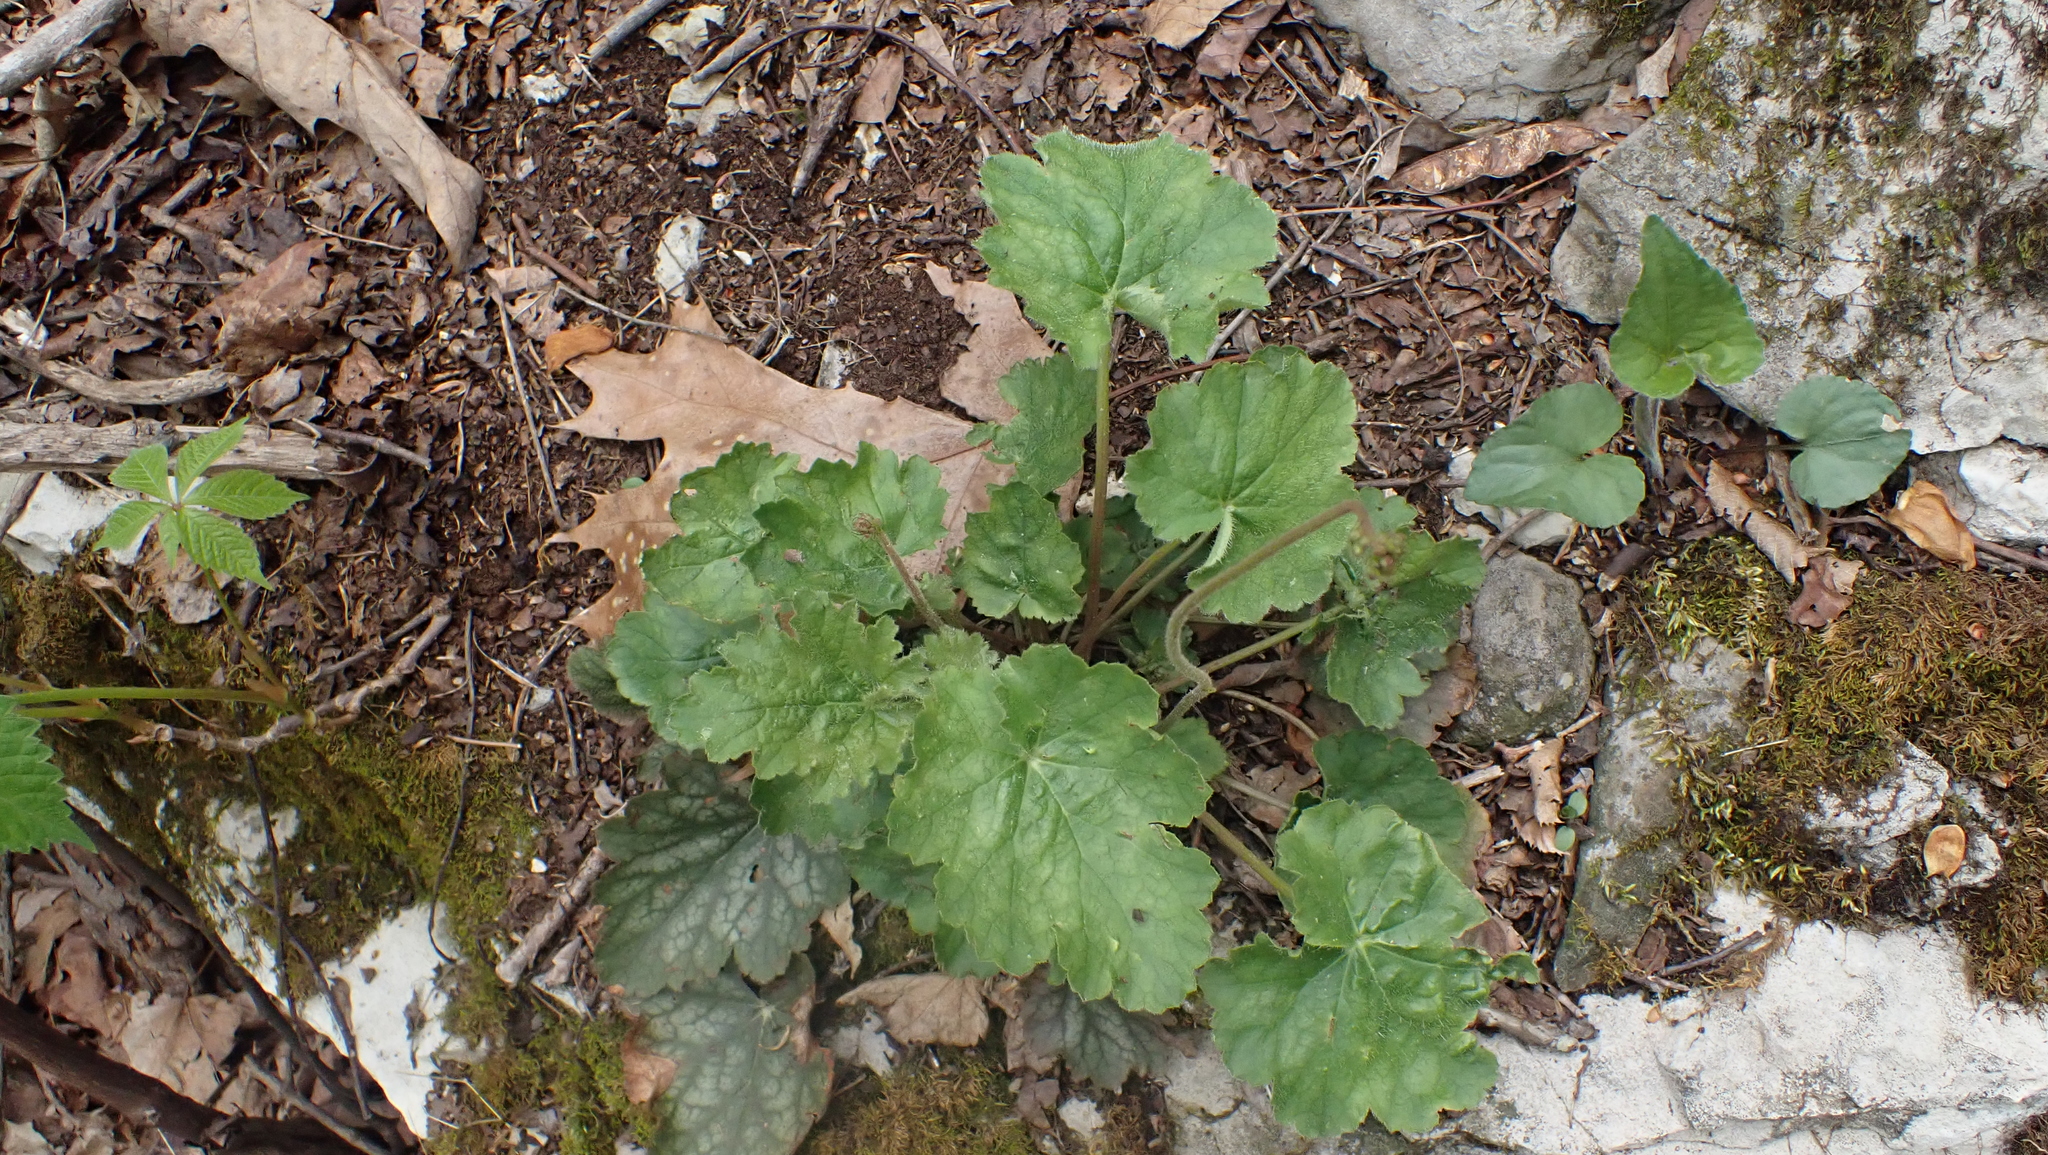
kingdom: Plantae
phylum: Tracheophyta
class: Magnoliopsida
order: Saxifragales
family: Saxifragaceae
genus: Heuchera
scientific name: Heuchera americana
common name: Alumroot
